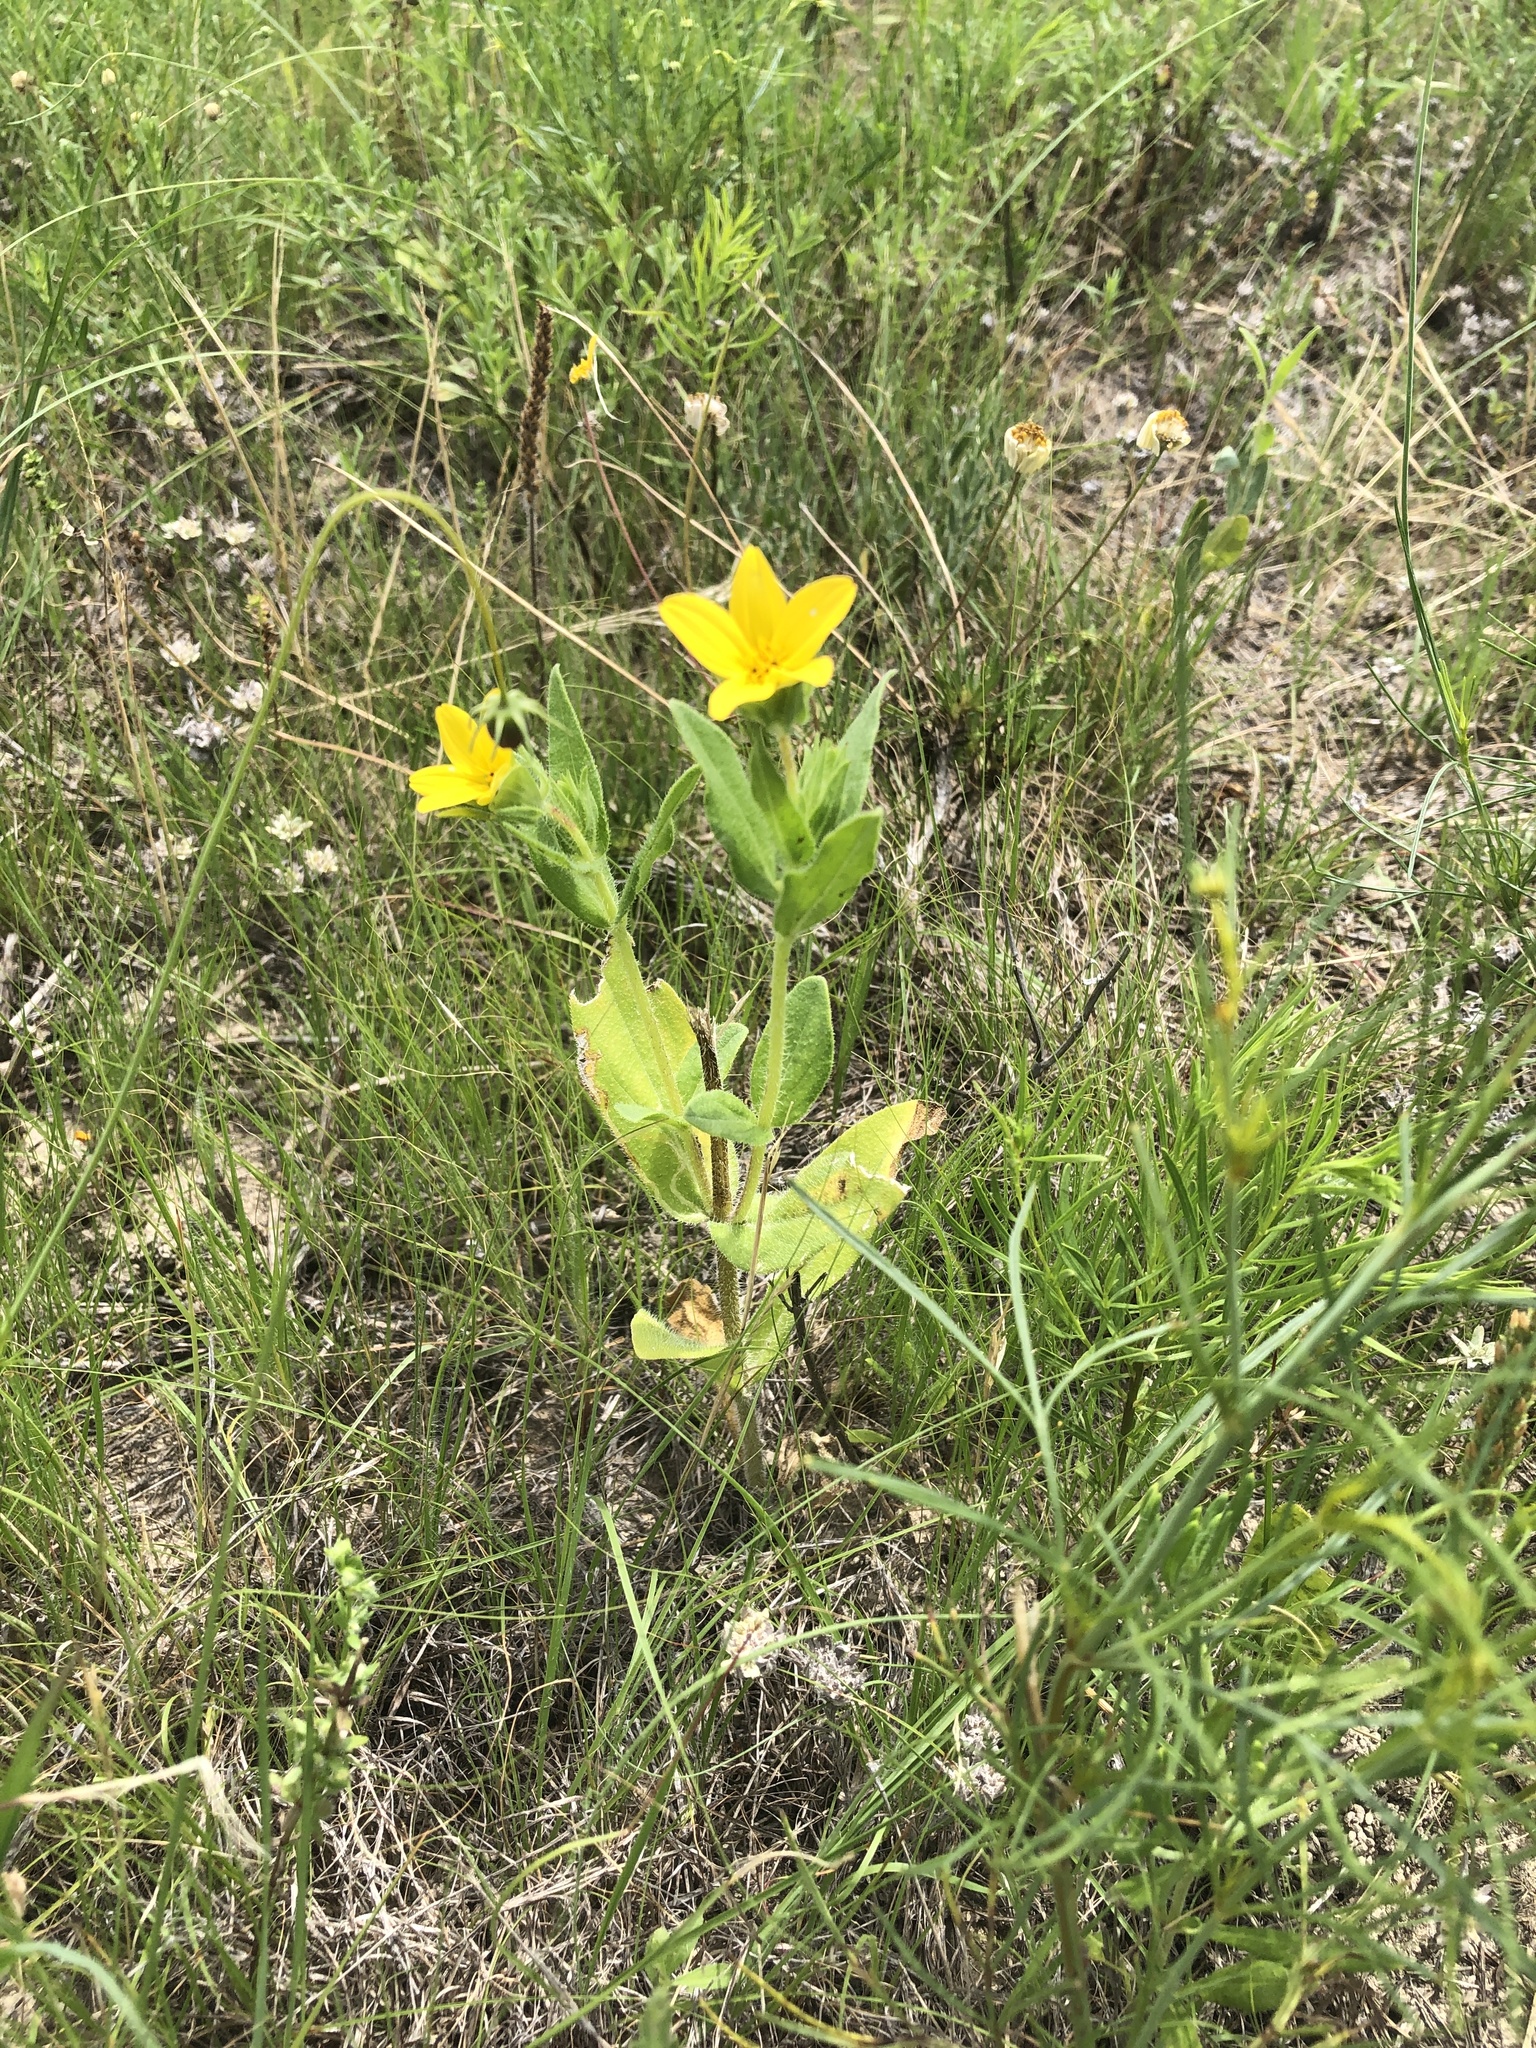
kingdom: Plantae
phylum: Tracheophyta
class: Magnoliopsida
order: Asterales
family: Asteraceae
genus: Lindheimera
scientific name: Lindheimera texana
